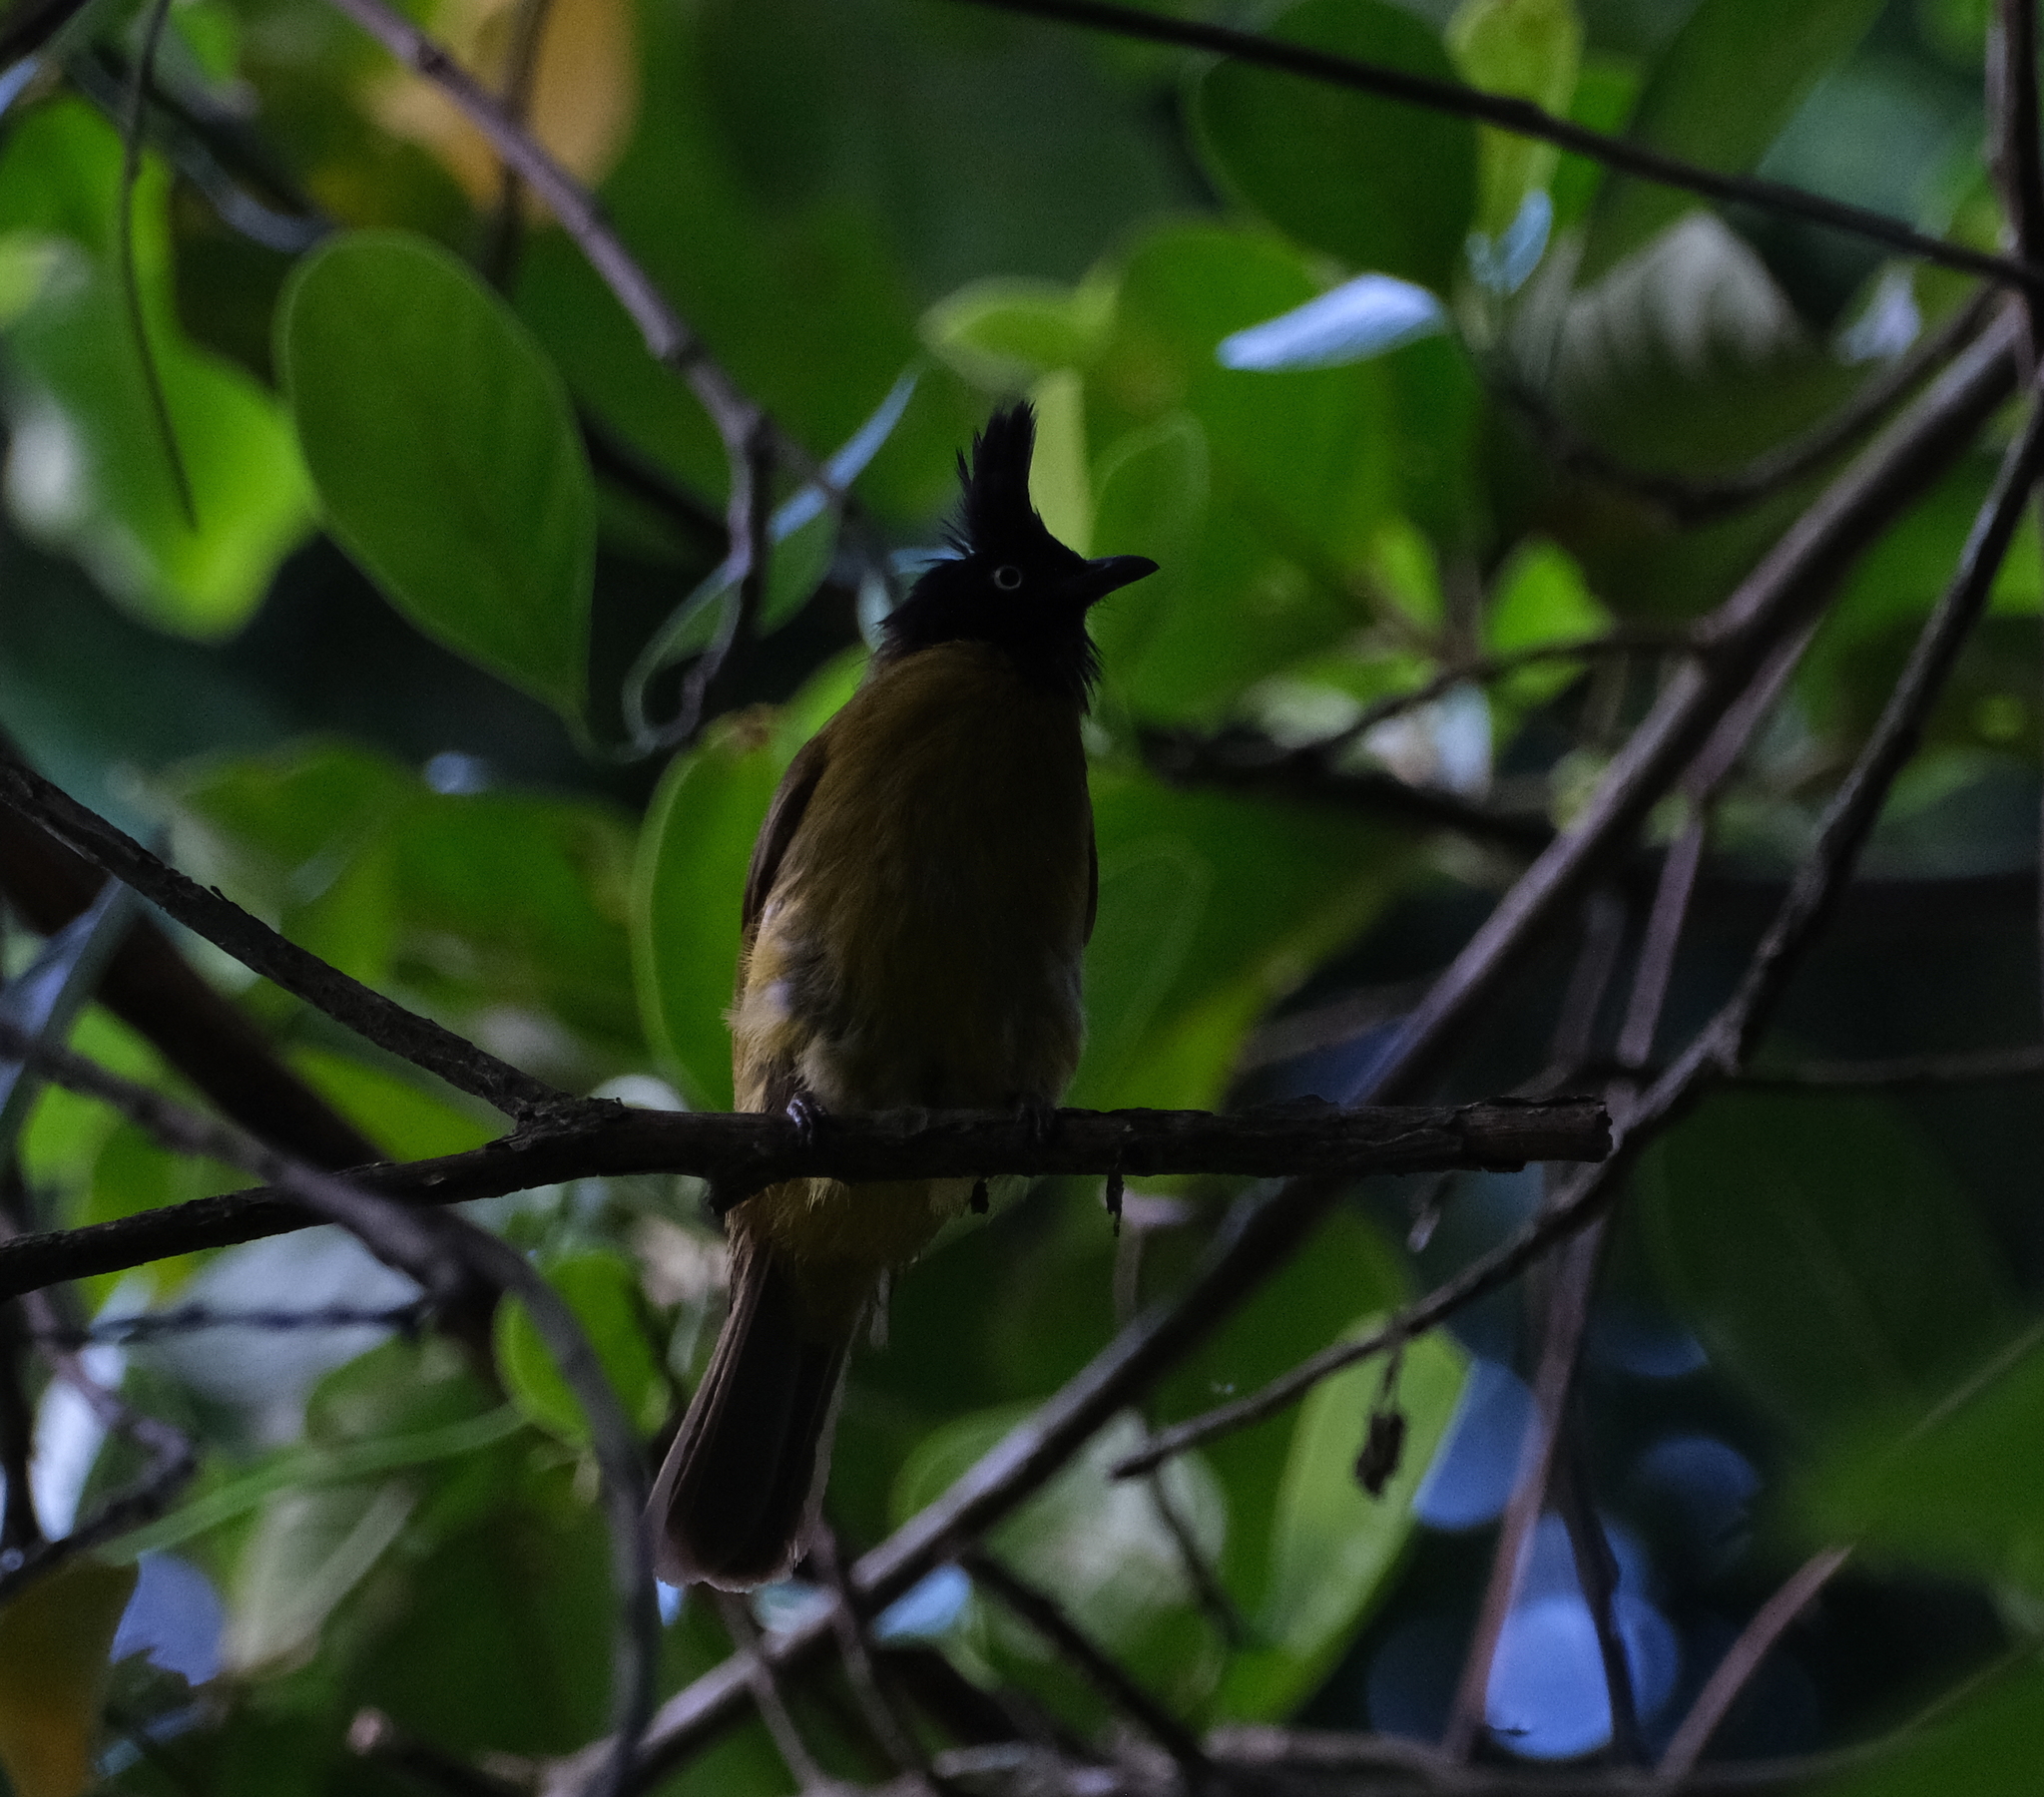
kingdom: Animalia
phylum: Chordata
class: Aves
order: Passeriformes
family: Pycnonotidae
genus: Pycnonotus
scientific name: Pycnonotus flaviventris
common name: Black-crested bulbul
